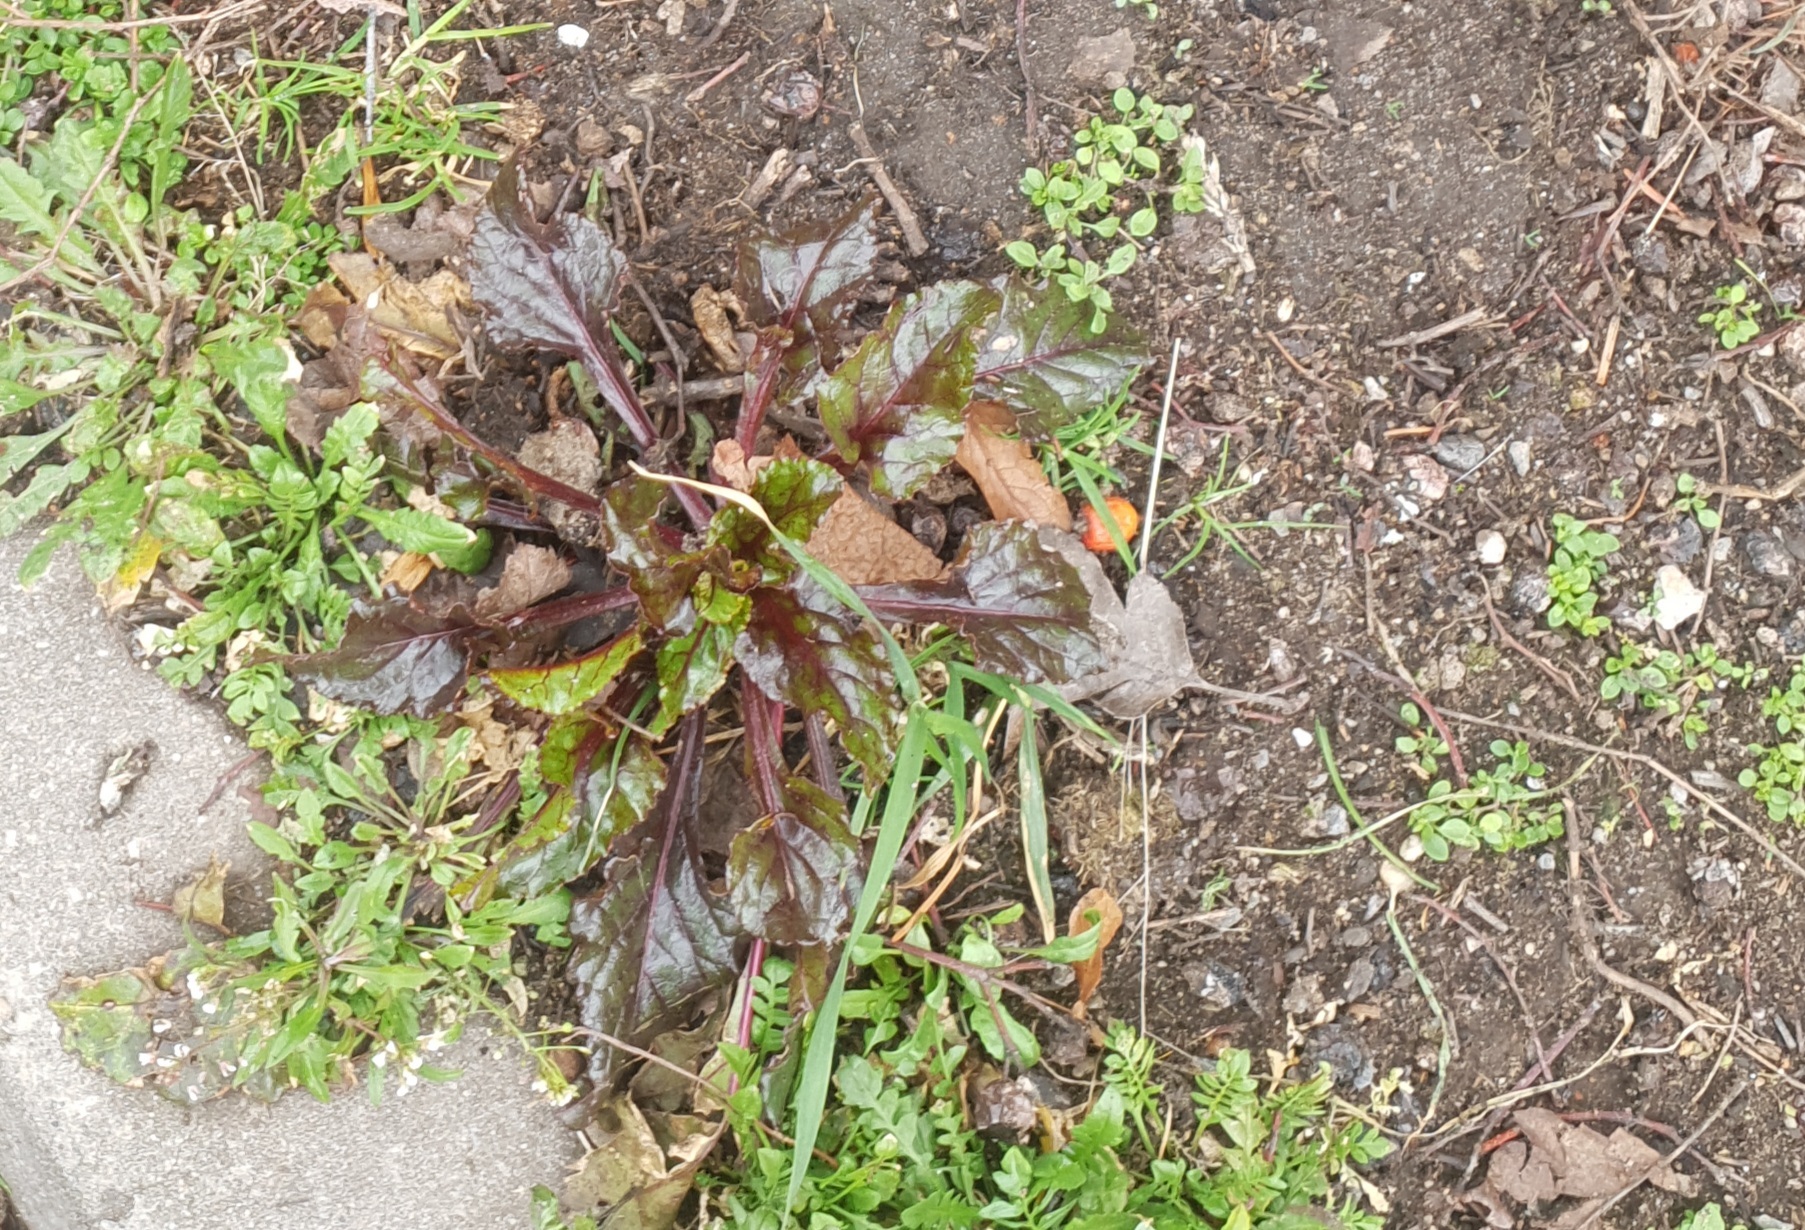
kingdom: Plantae
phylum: Tracheophyta
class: Magnoliopsida
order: Caryophyllales
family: Amaranthaceae
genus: Beta
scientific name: Beta vulgaris
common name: Beet
